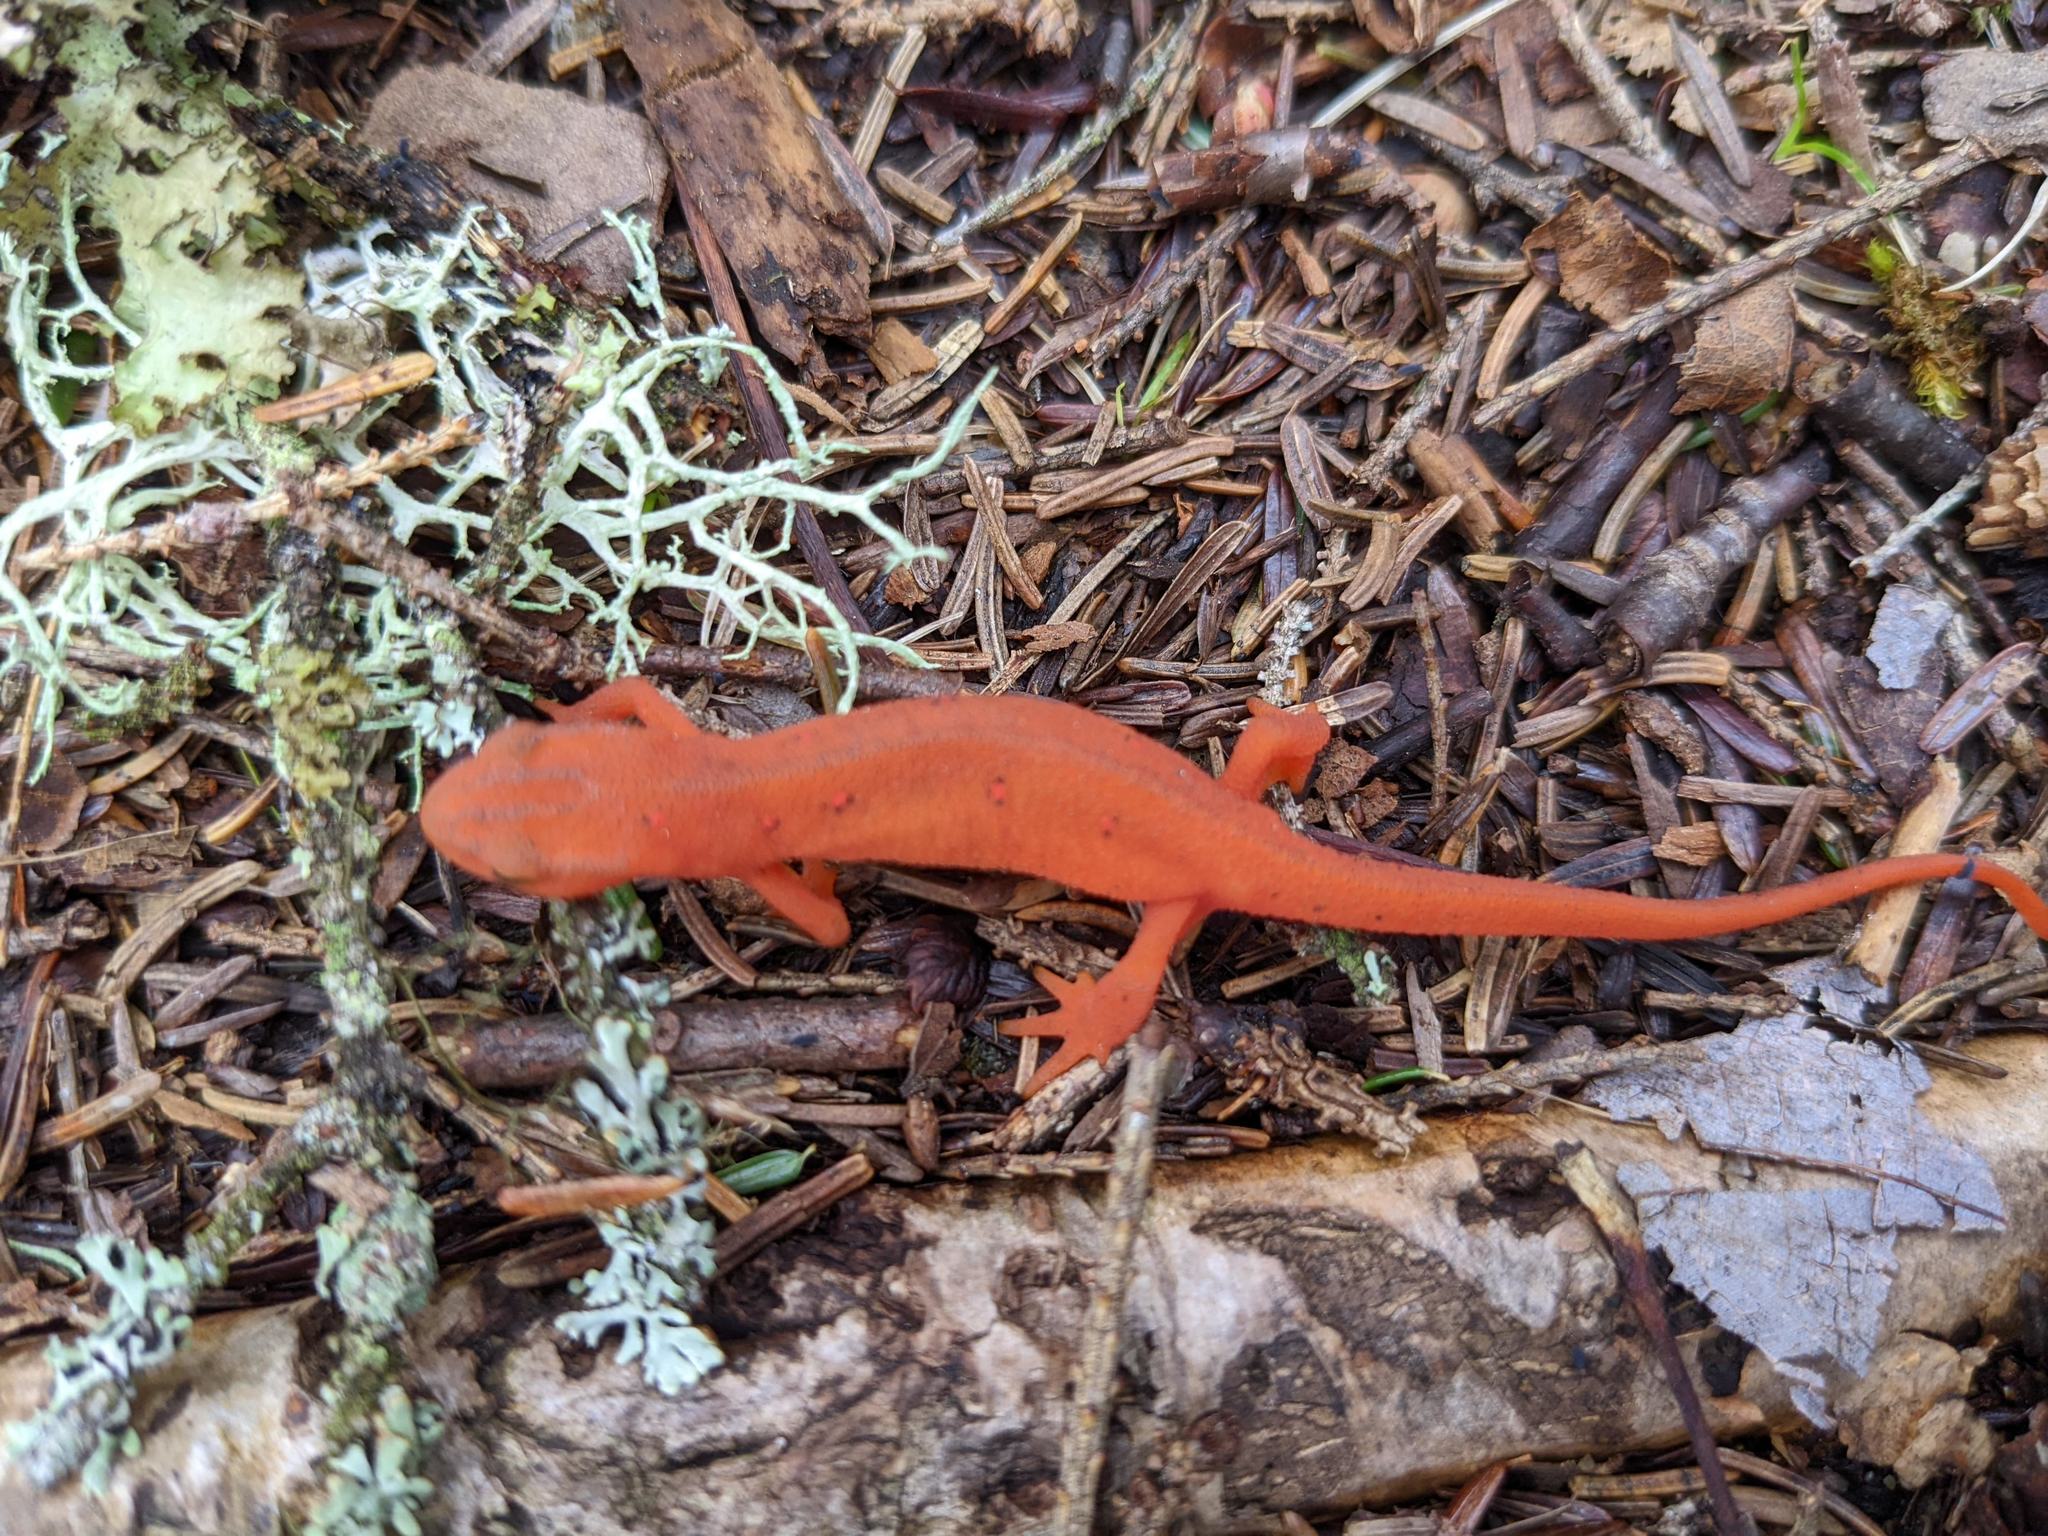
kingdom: Animalia
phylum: Chordata
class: Amphibia
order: Caudata
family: Salamandridae
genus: Notophthalmus
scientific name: Notophthalmus viridescens
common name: Eastern newt
